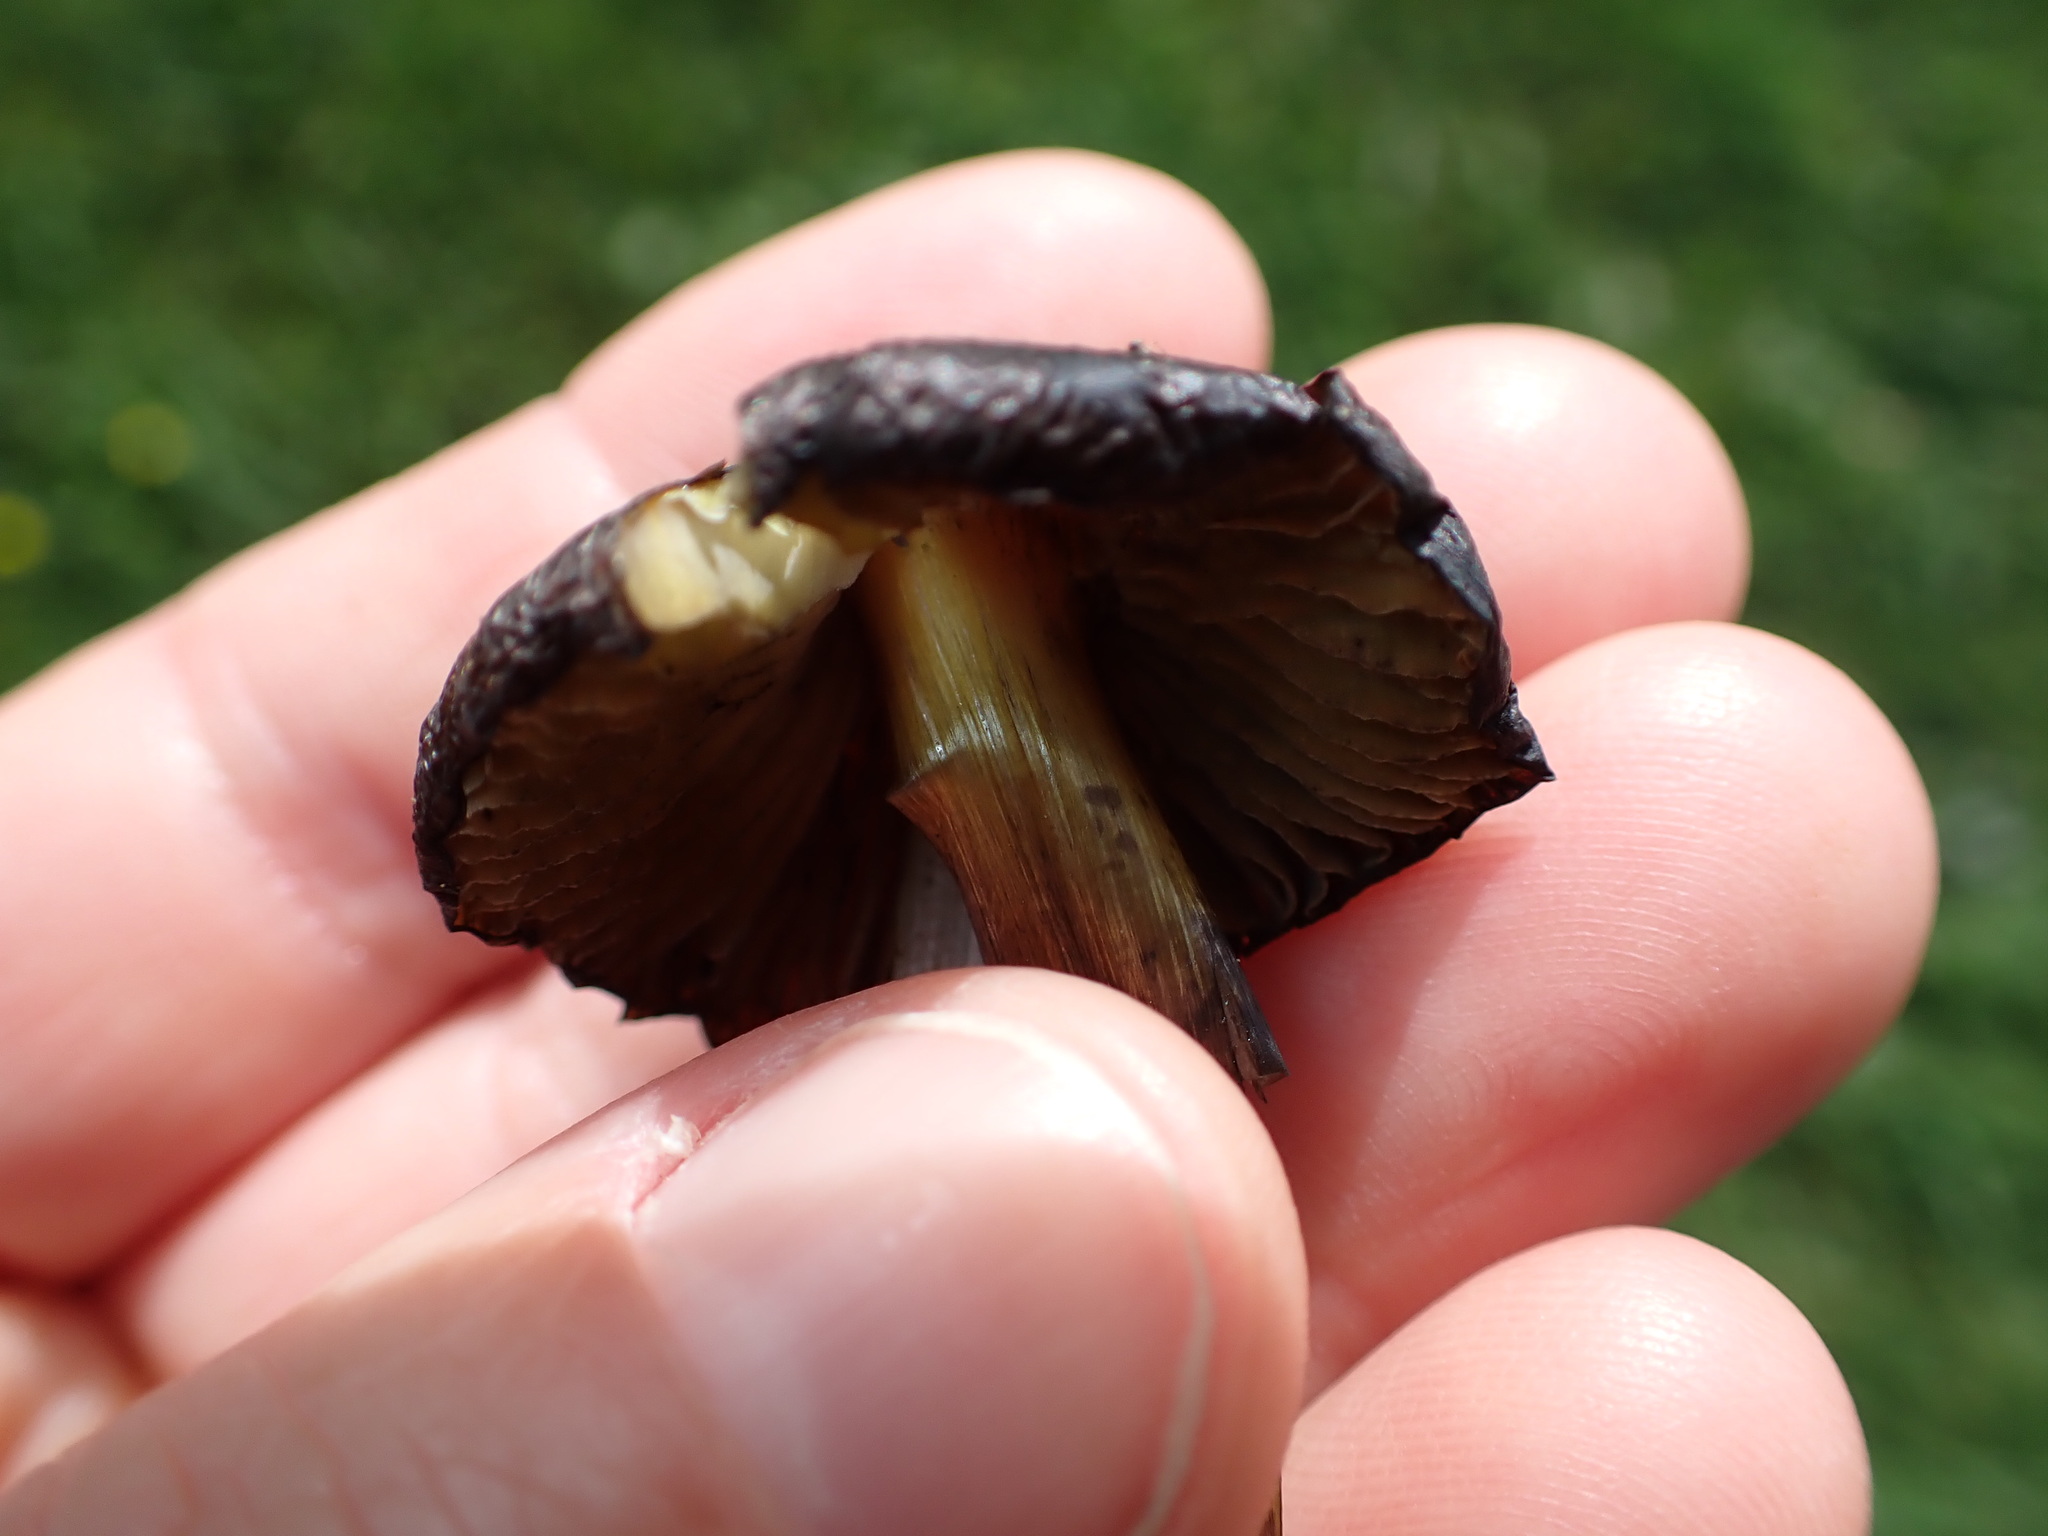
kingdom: Fungi
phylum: Basidiomycota
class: Agaricomycetes
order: Agaricales
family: Hygrophoraceae
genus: Hygrocybe
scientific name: Hygrocybe conica
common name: Blackening wax-cap
